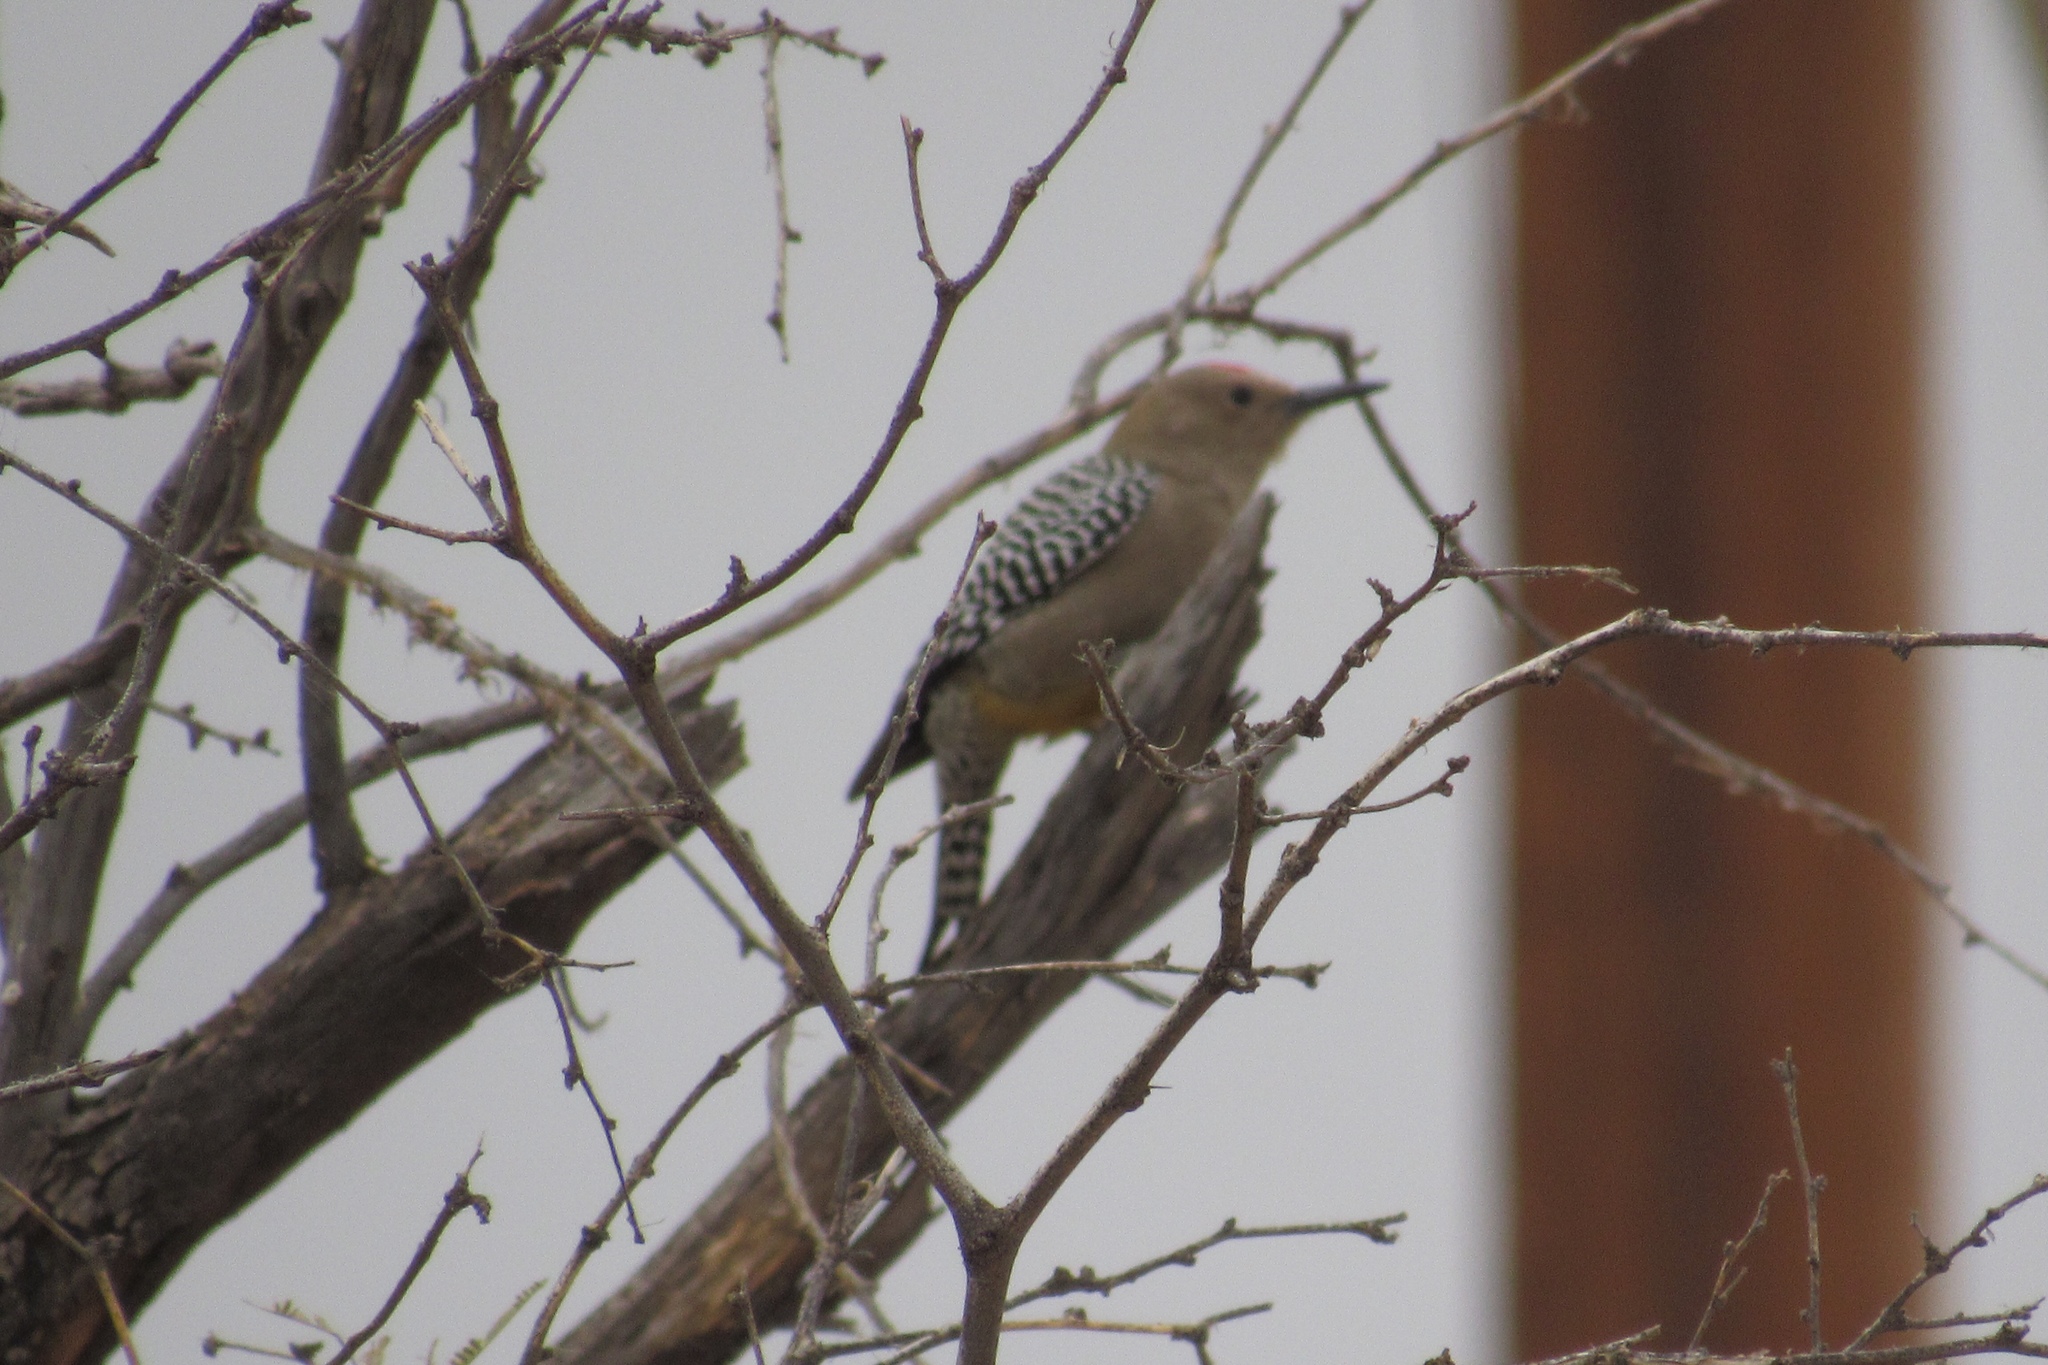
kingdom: Animalia
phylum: Chordata
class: Aves
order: Piciformes
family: Picidae
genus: Melanerpes
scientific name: Melanerpes uropygialis
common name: Gila woodpecker
